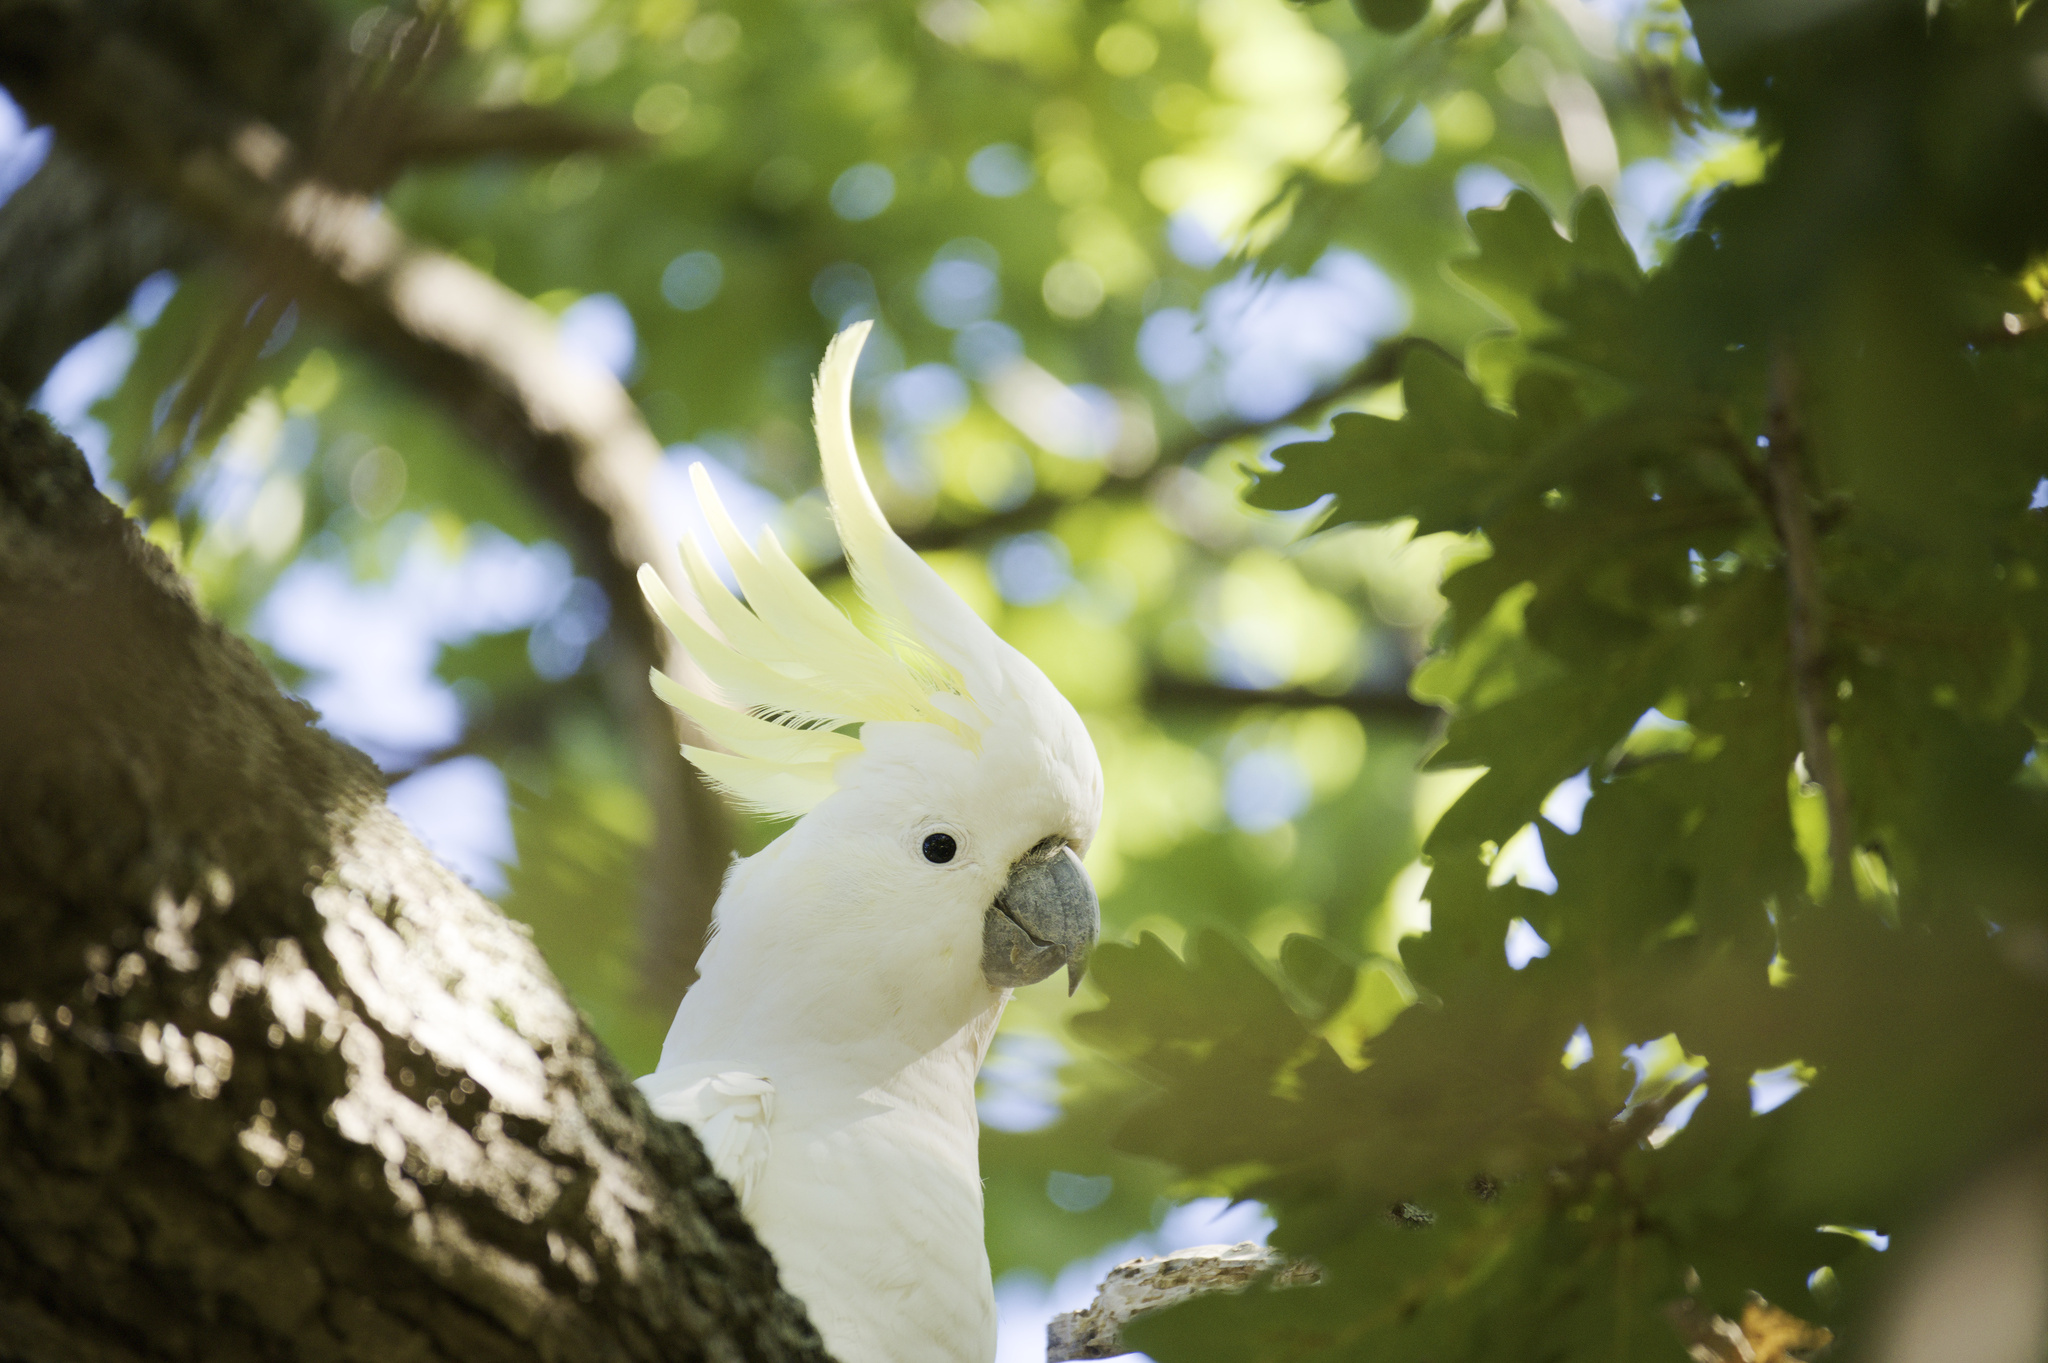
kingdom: Animalia
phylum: Chordata
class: Aves
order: Psittaciformes
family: Psittacidae
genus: Cacatua
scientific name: Cacatua galerita
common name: Sulphur-crested cockatoo
